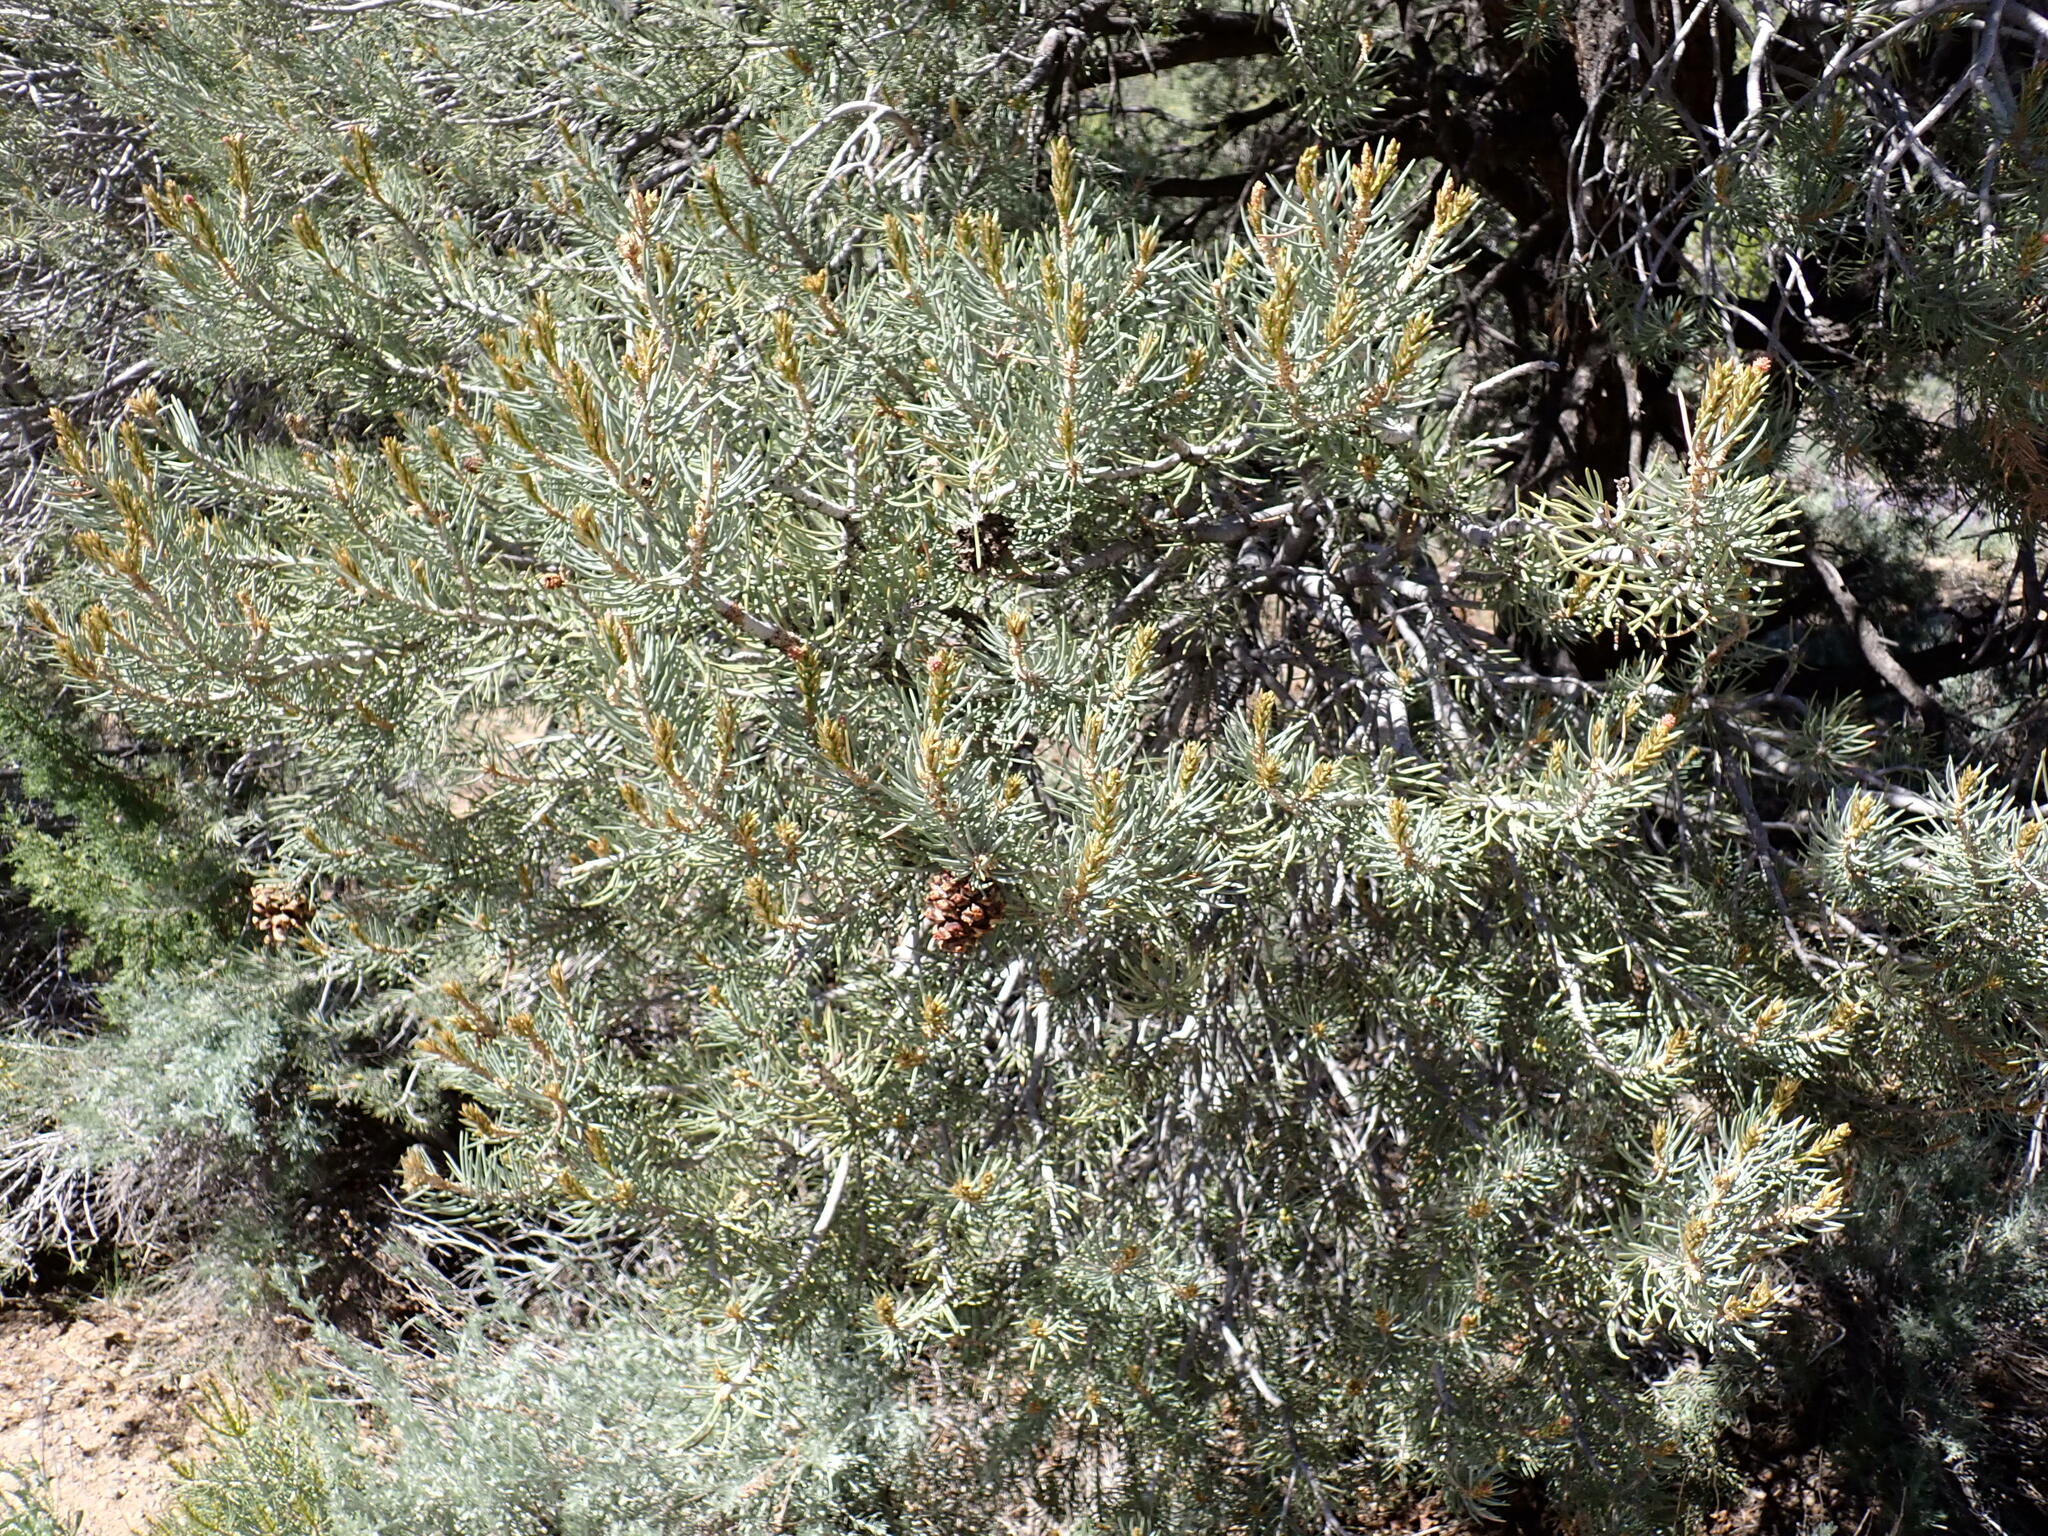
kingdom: Plantae
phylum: Tracheophyta
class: Pinopsida
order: Pinales
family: Pinaceae
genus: Pinus
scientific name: Pinus monophylla
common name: One-leaved nut pine
